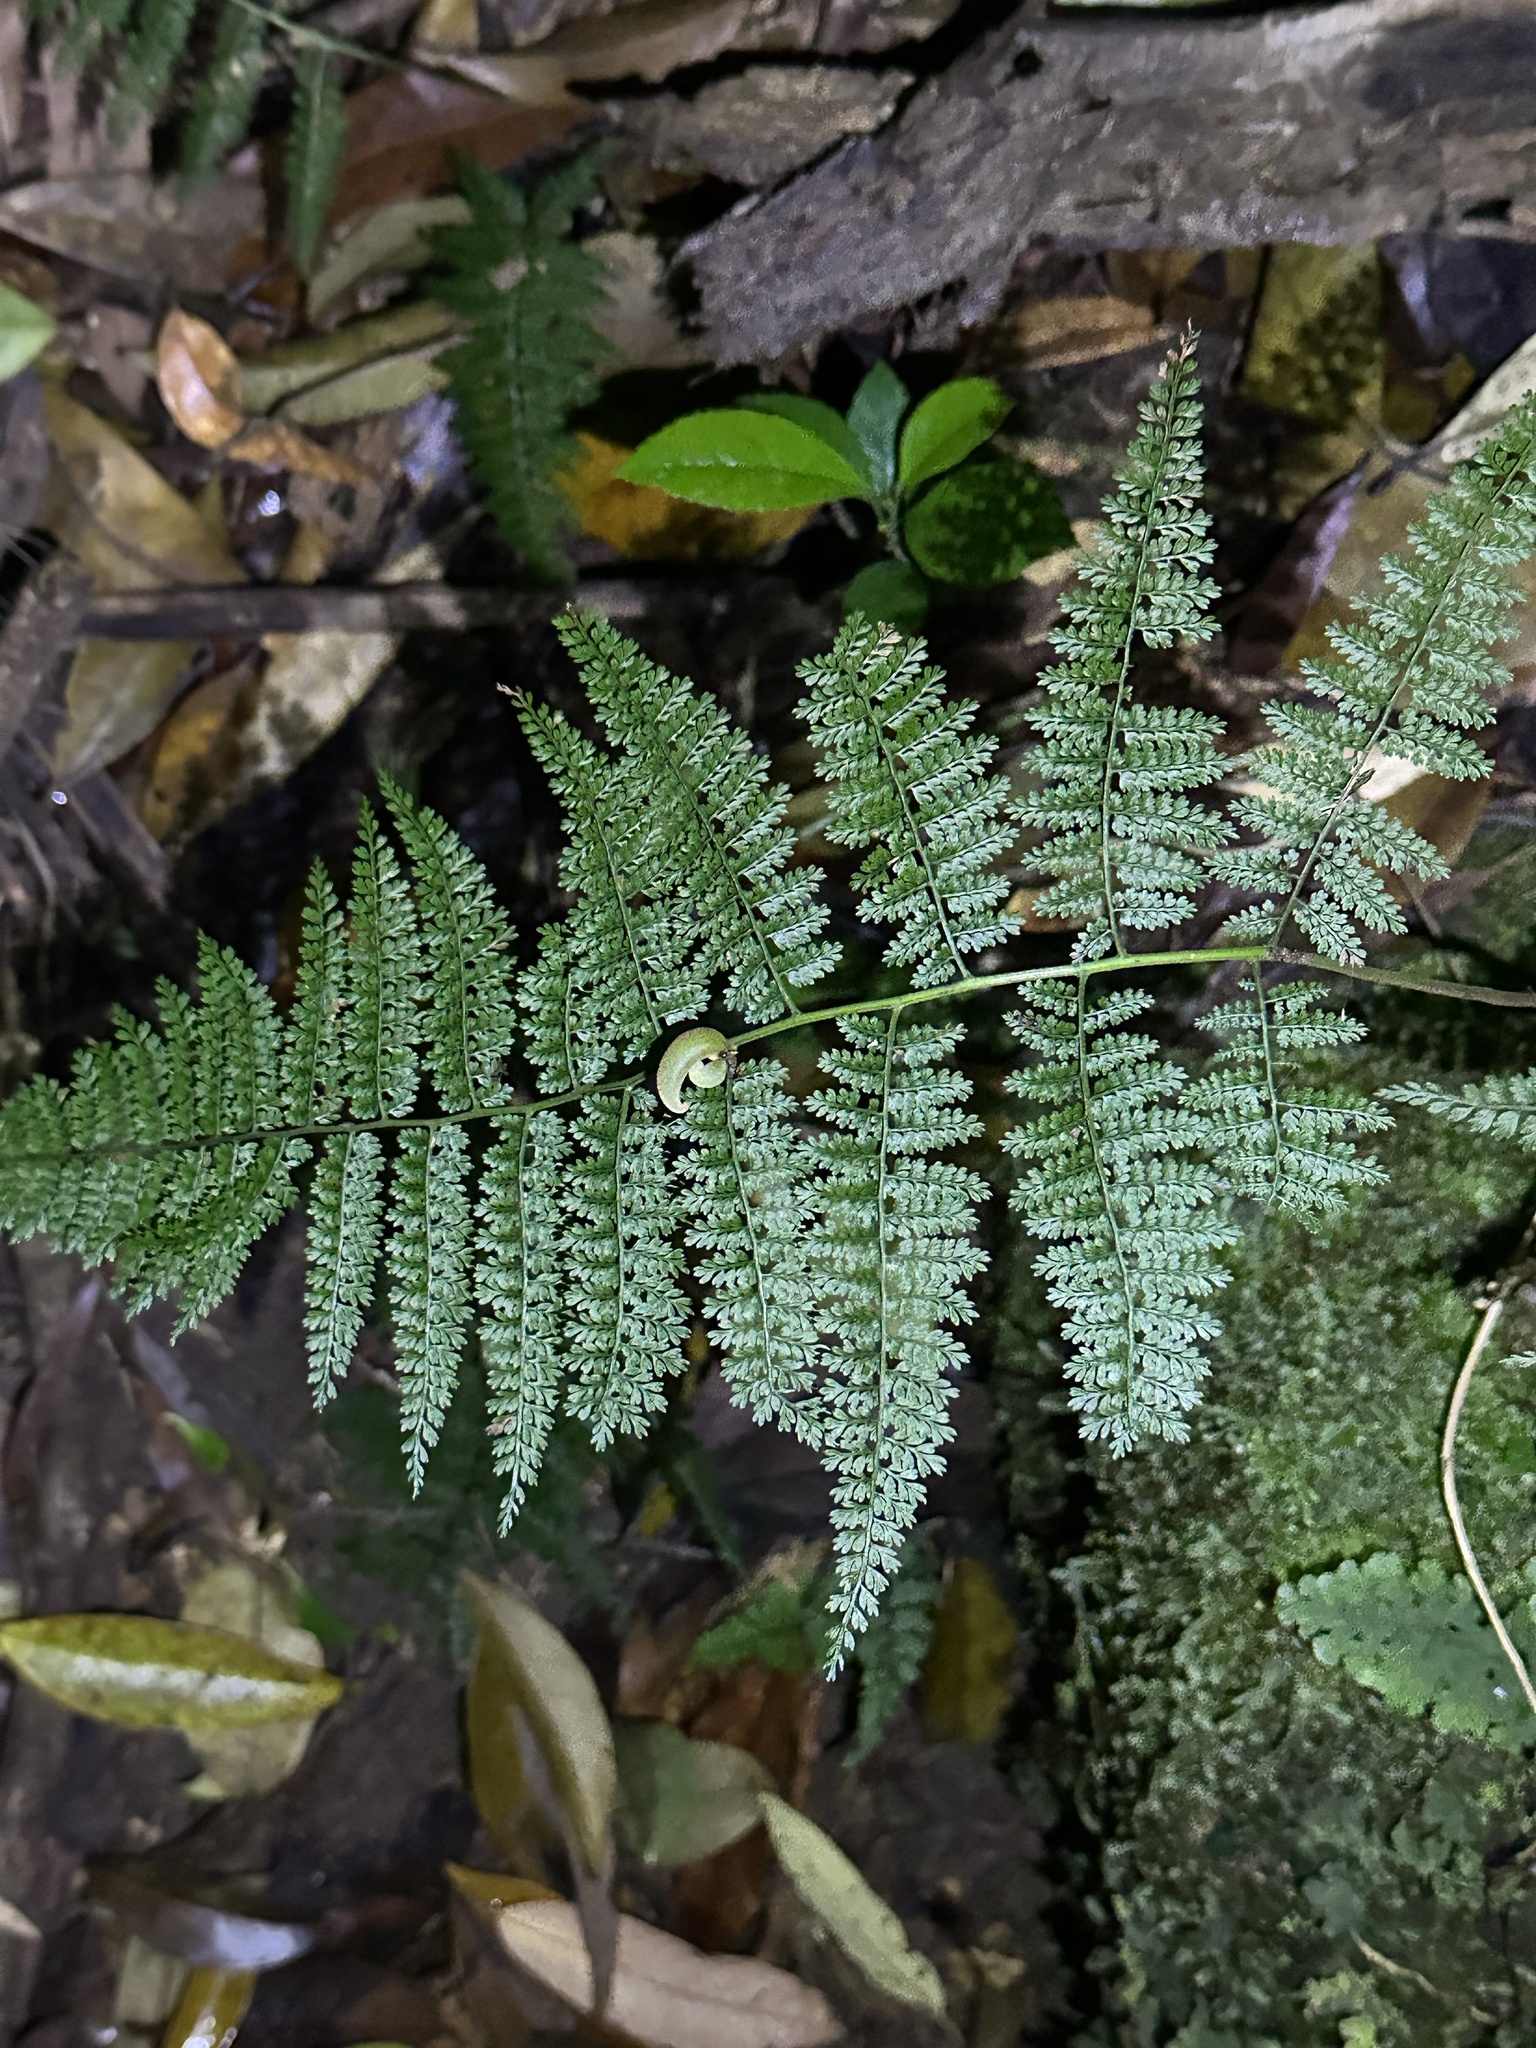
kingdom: Plantae
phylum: Tracheophyta
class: Polypodiopsida
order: Polypodiales
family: Dennstaedtiaceae
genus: Monachosorum
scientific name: Monachosorum henryi
